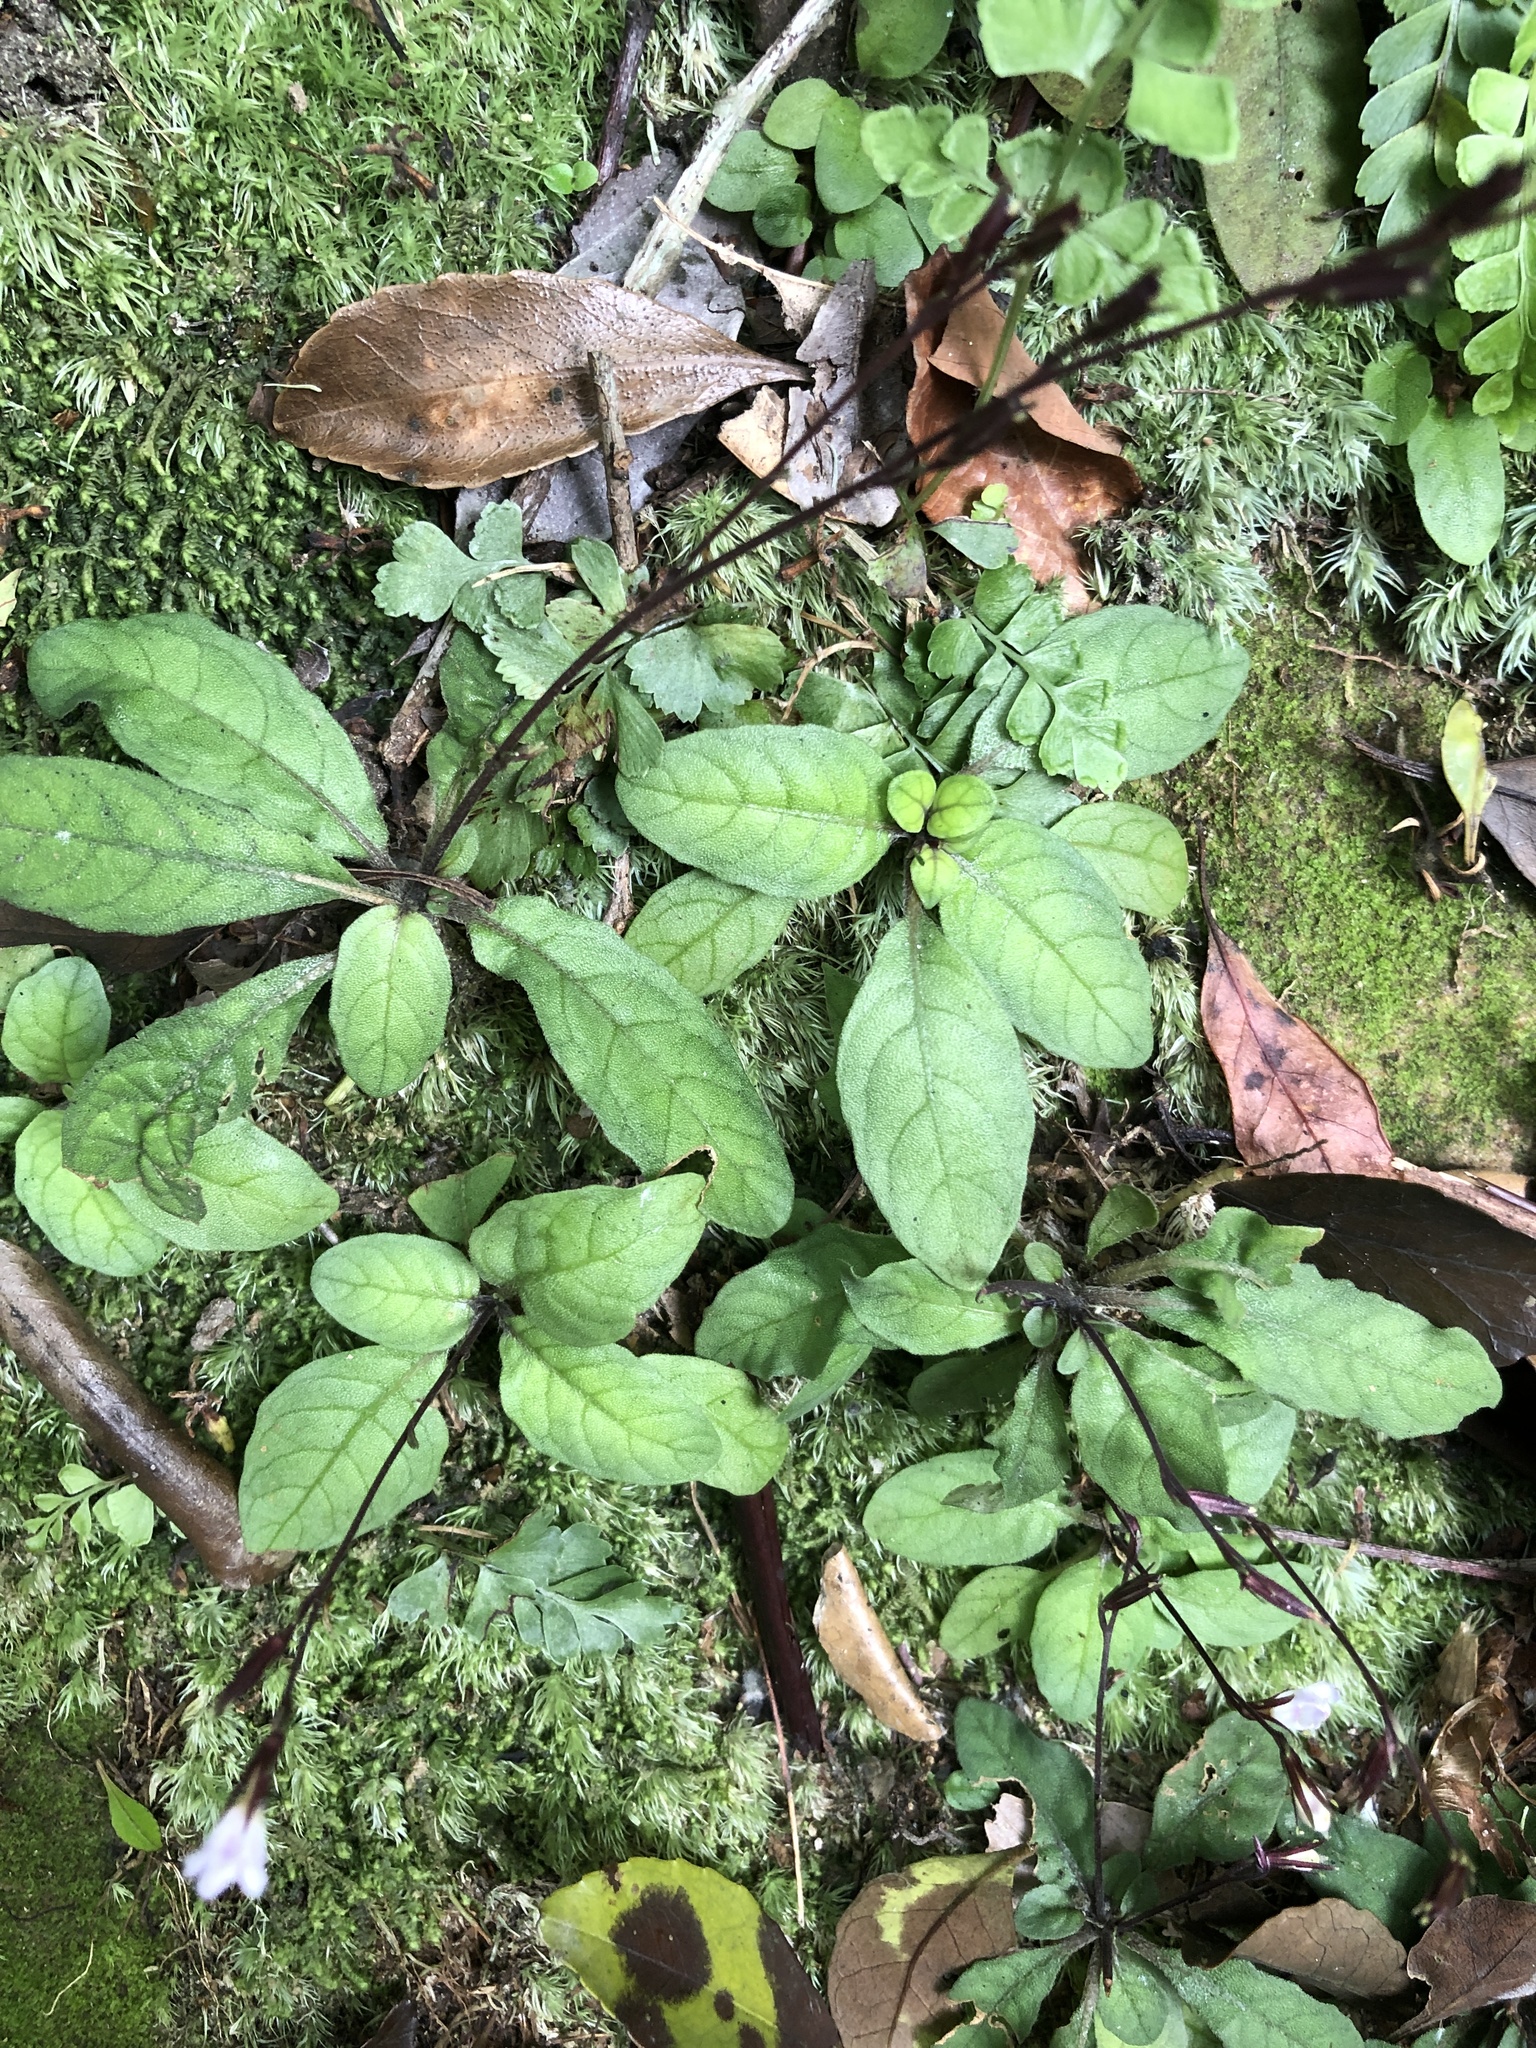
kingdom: Plantae
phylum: Tracheophyta
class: Magnoliopsida
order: Lamiales
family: Acanthaceae
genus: Staurogyne
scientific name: Staurogyne concinnula
